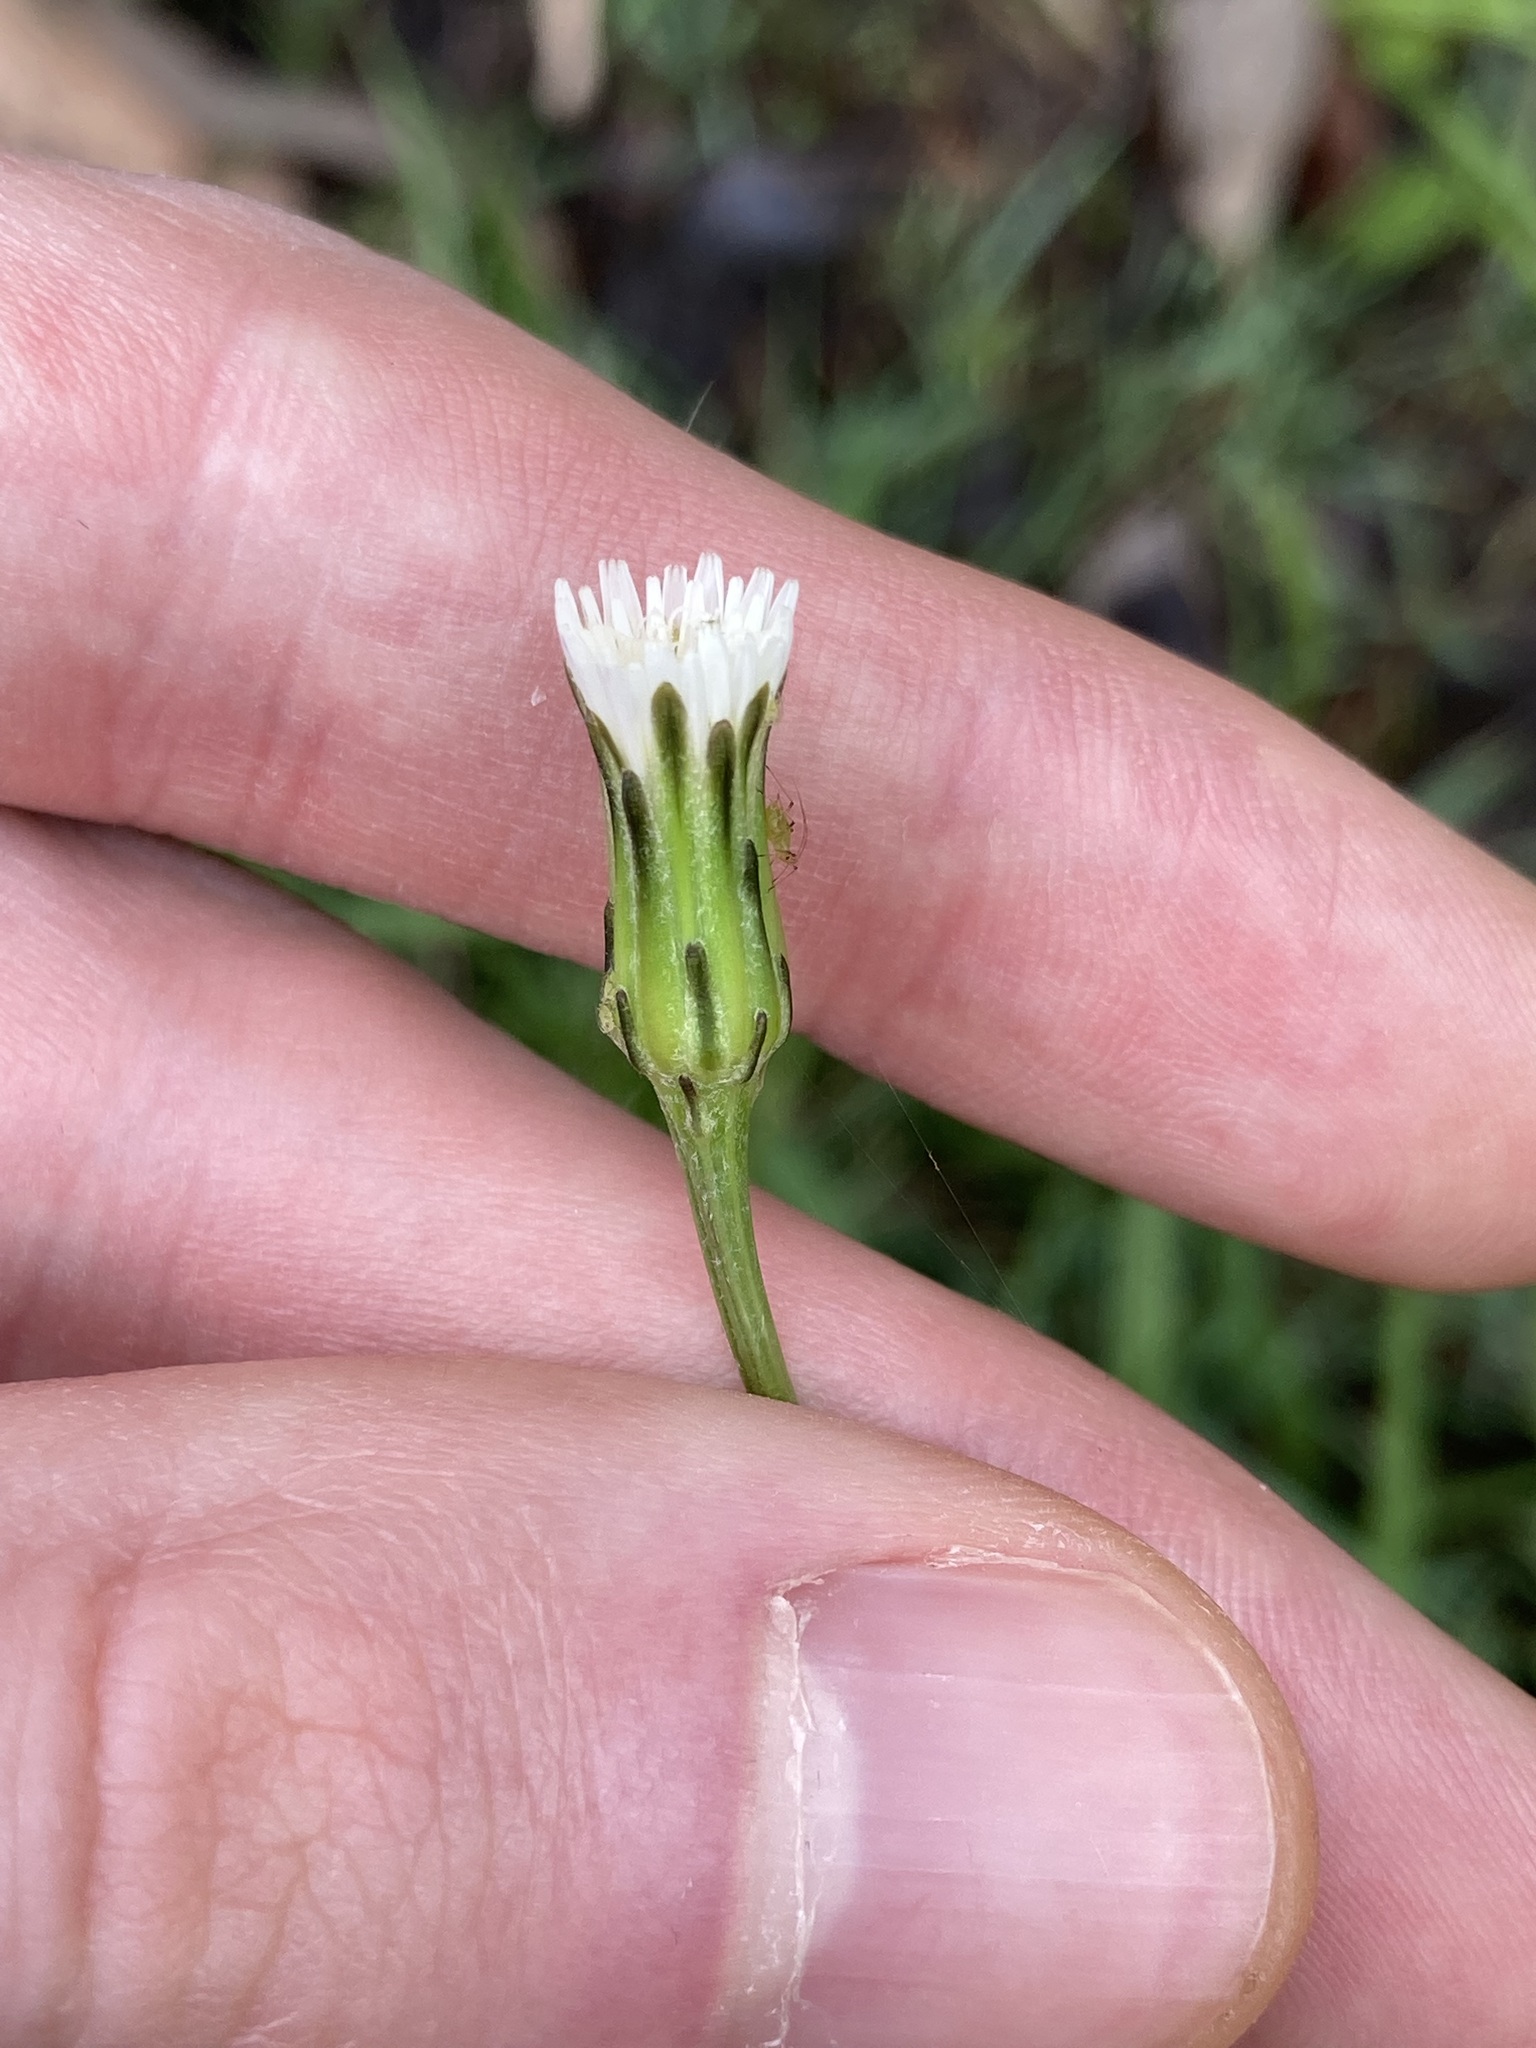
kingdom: Plantae
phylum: Tracheophyta
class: Magnoliopsida
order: Asterales
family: Asteraceae
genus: Hypochaeris
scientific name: Hypochaeris albiflora
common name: White flatweed
